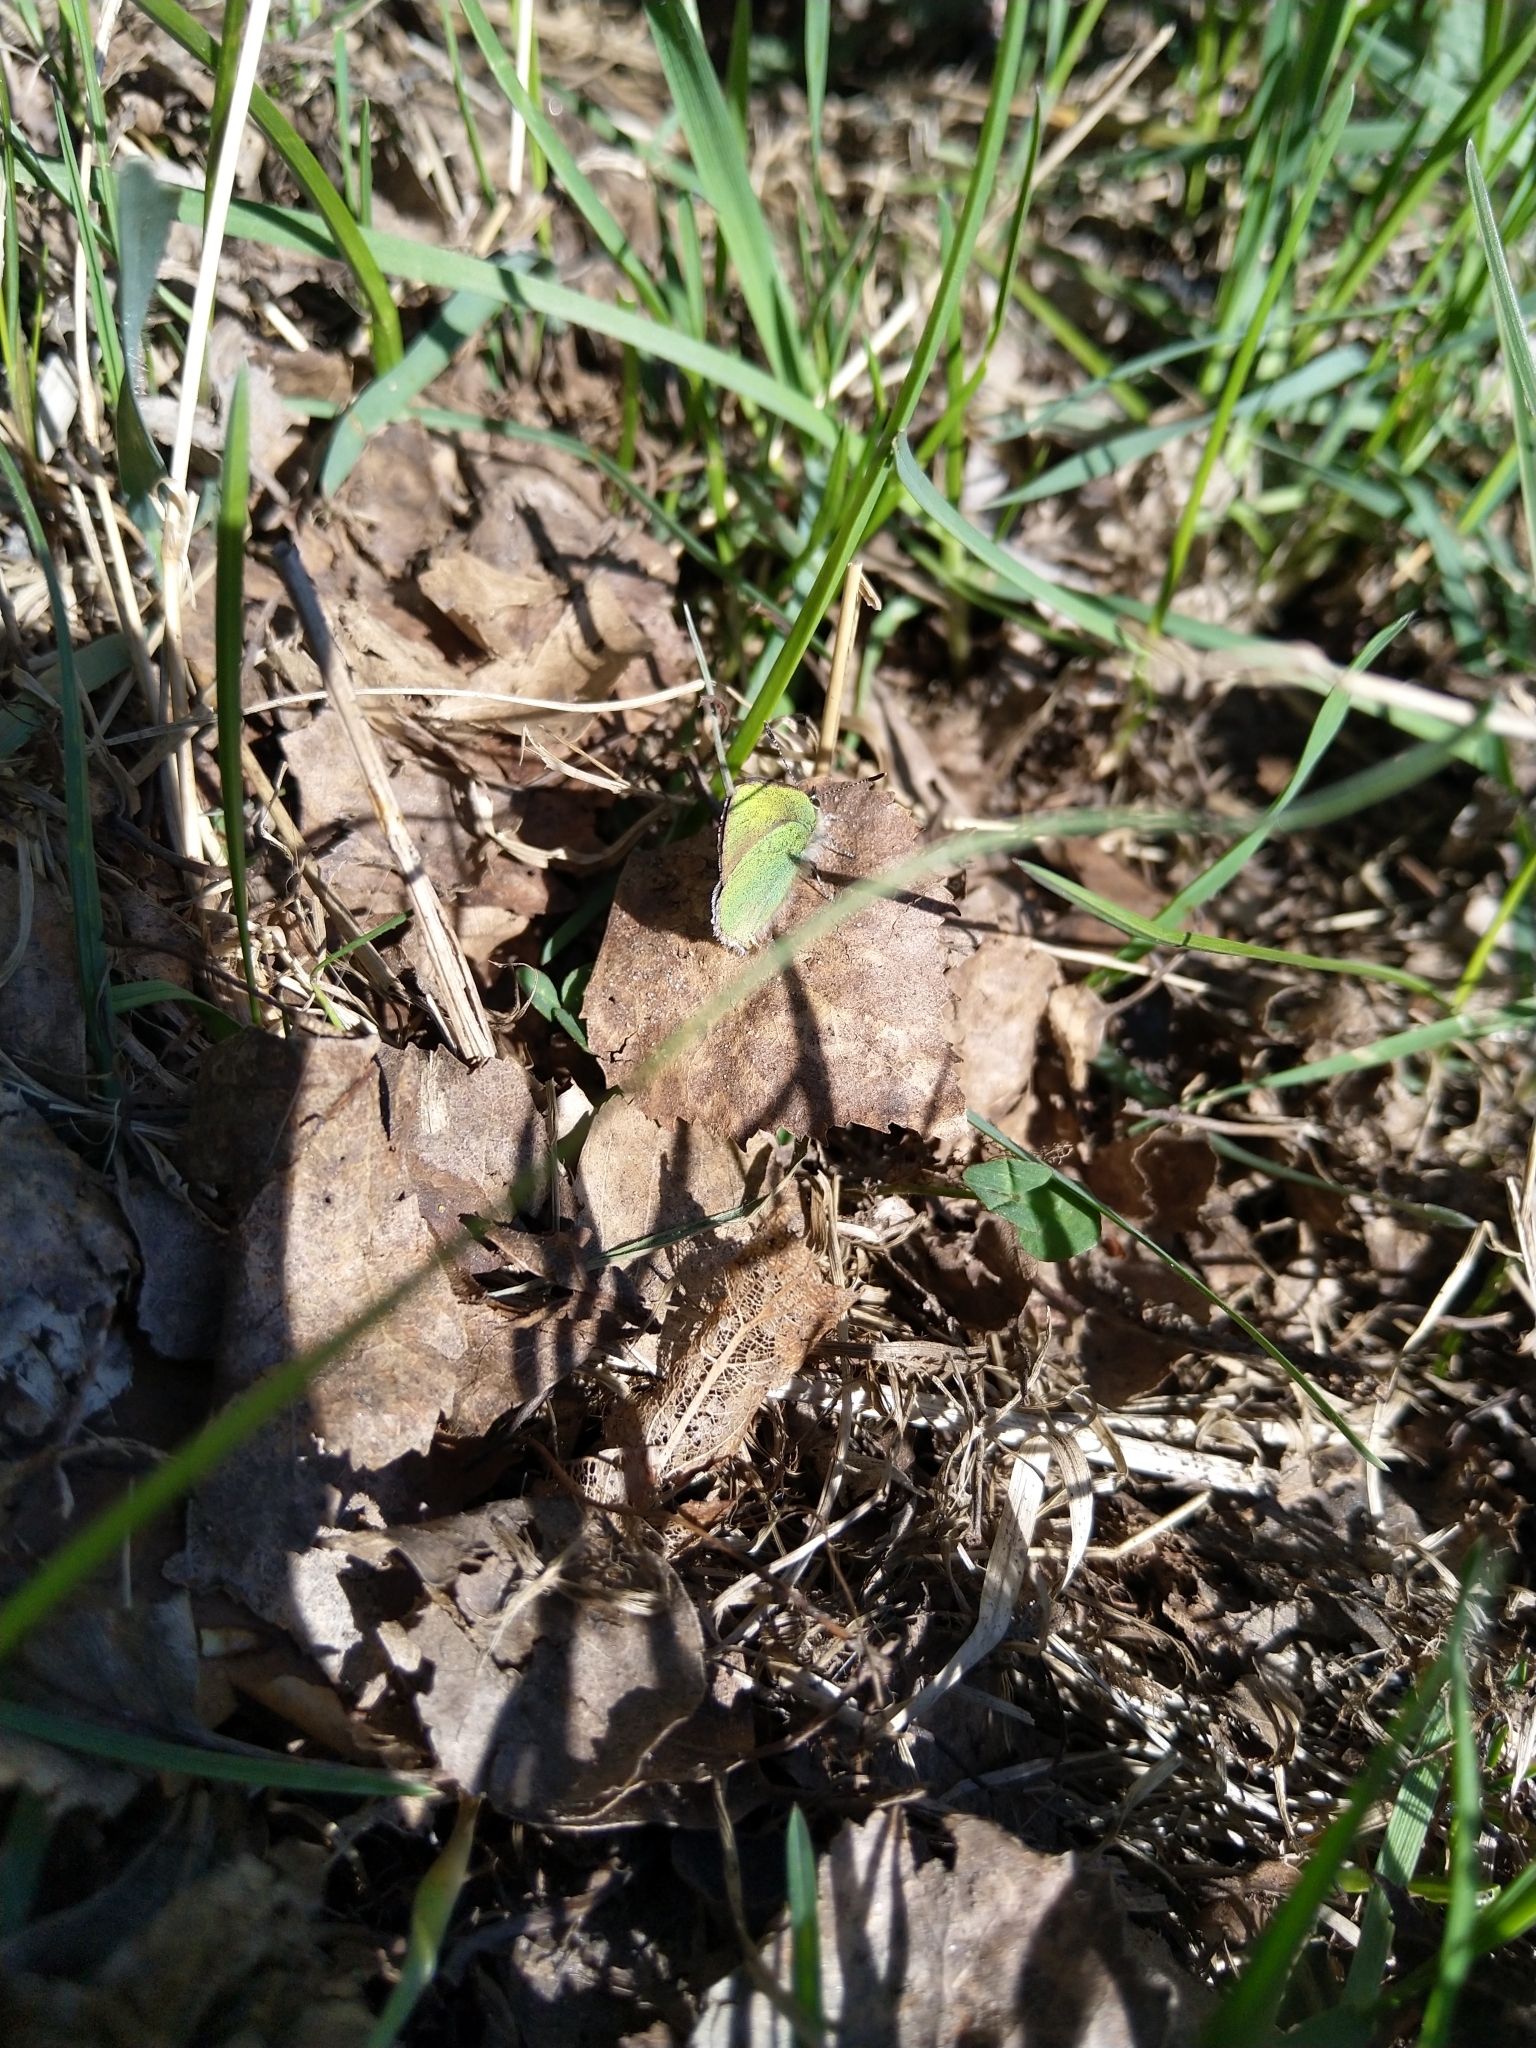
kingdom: Animalia
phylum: Arthropoda
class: Insecta
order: Lepidoptera
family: Lycaenidae
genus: Callophrys
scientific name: Callophrys rubi
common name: Green hairstreak
